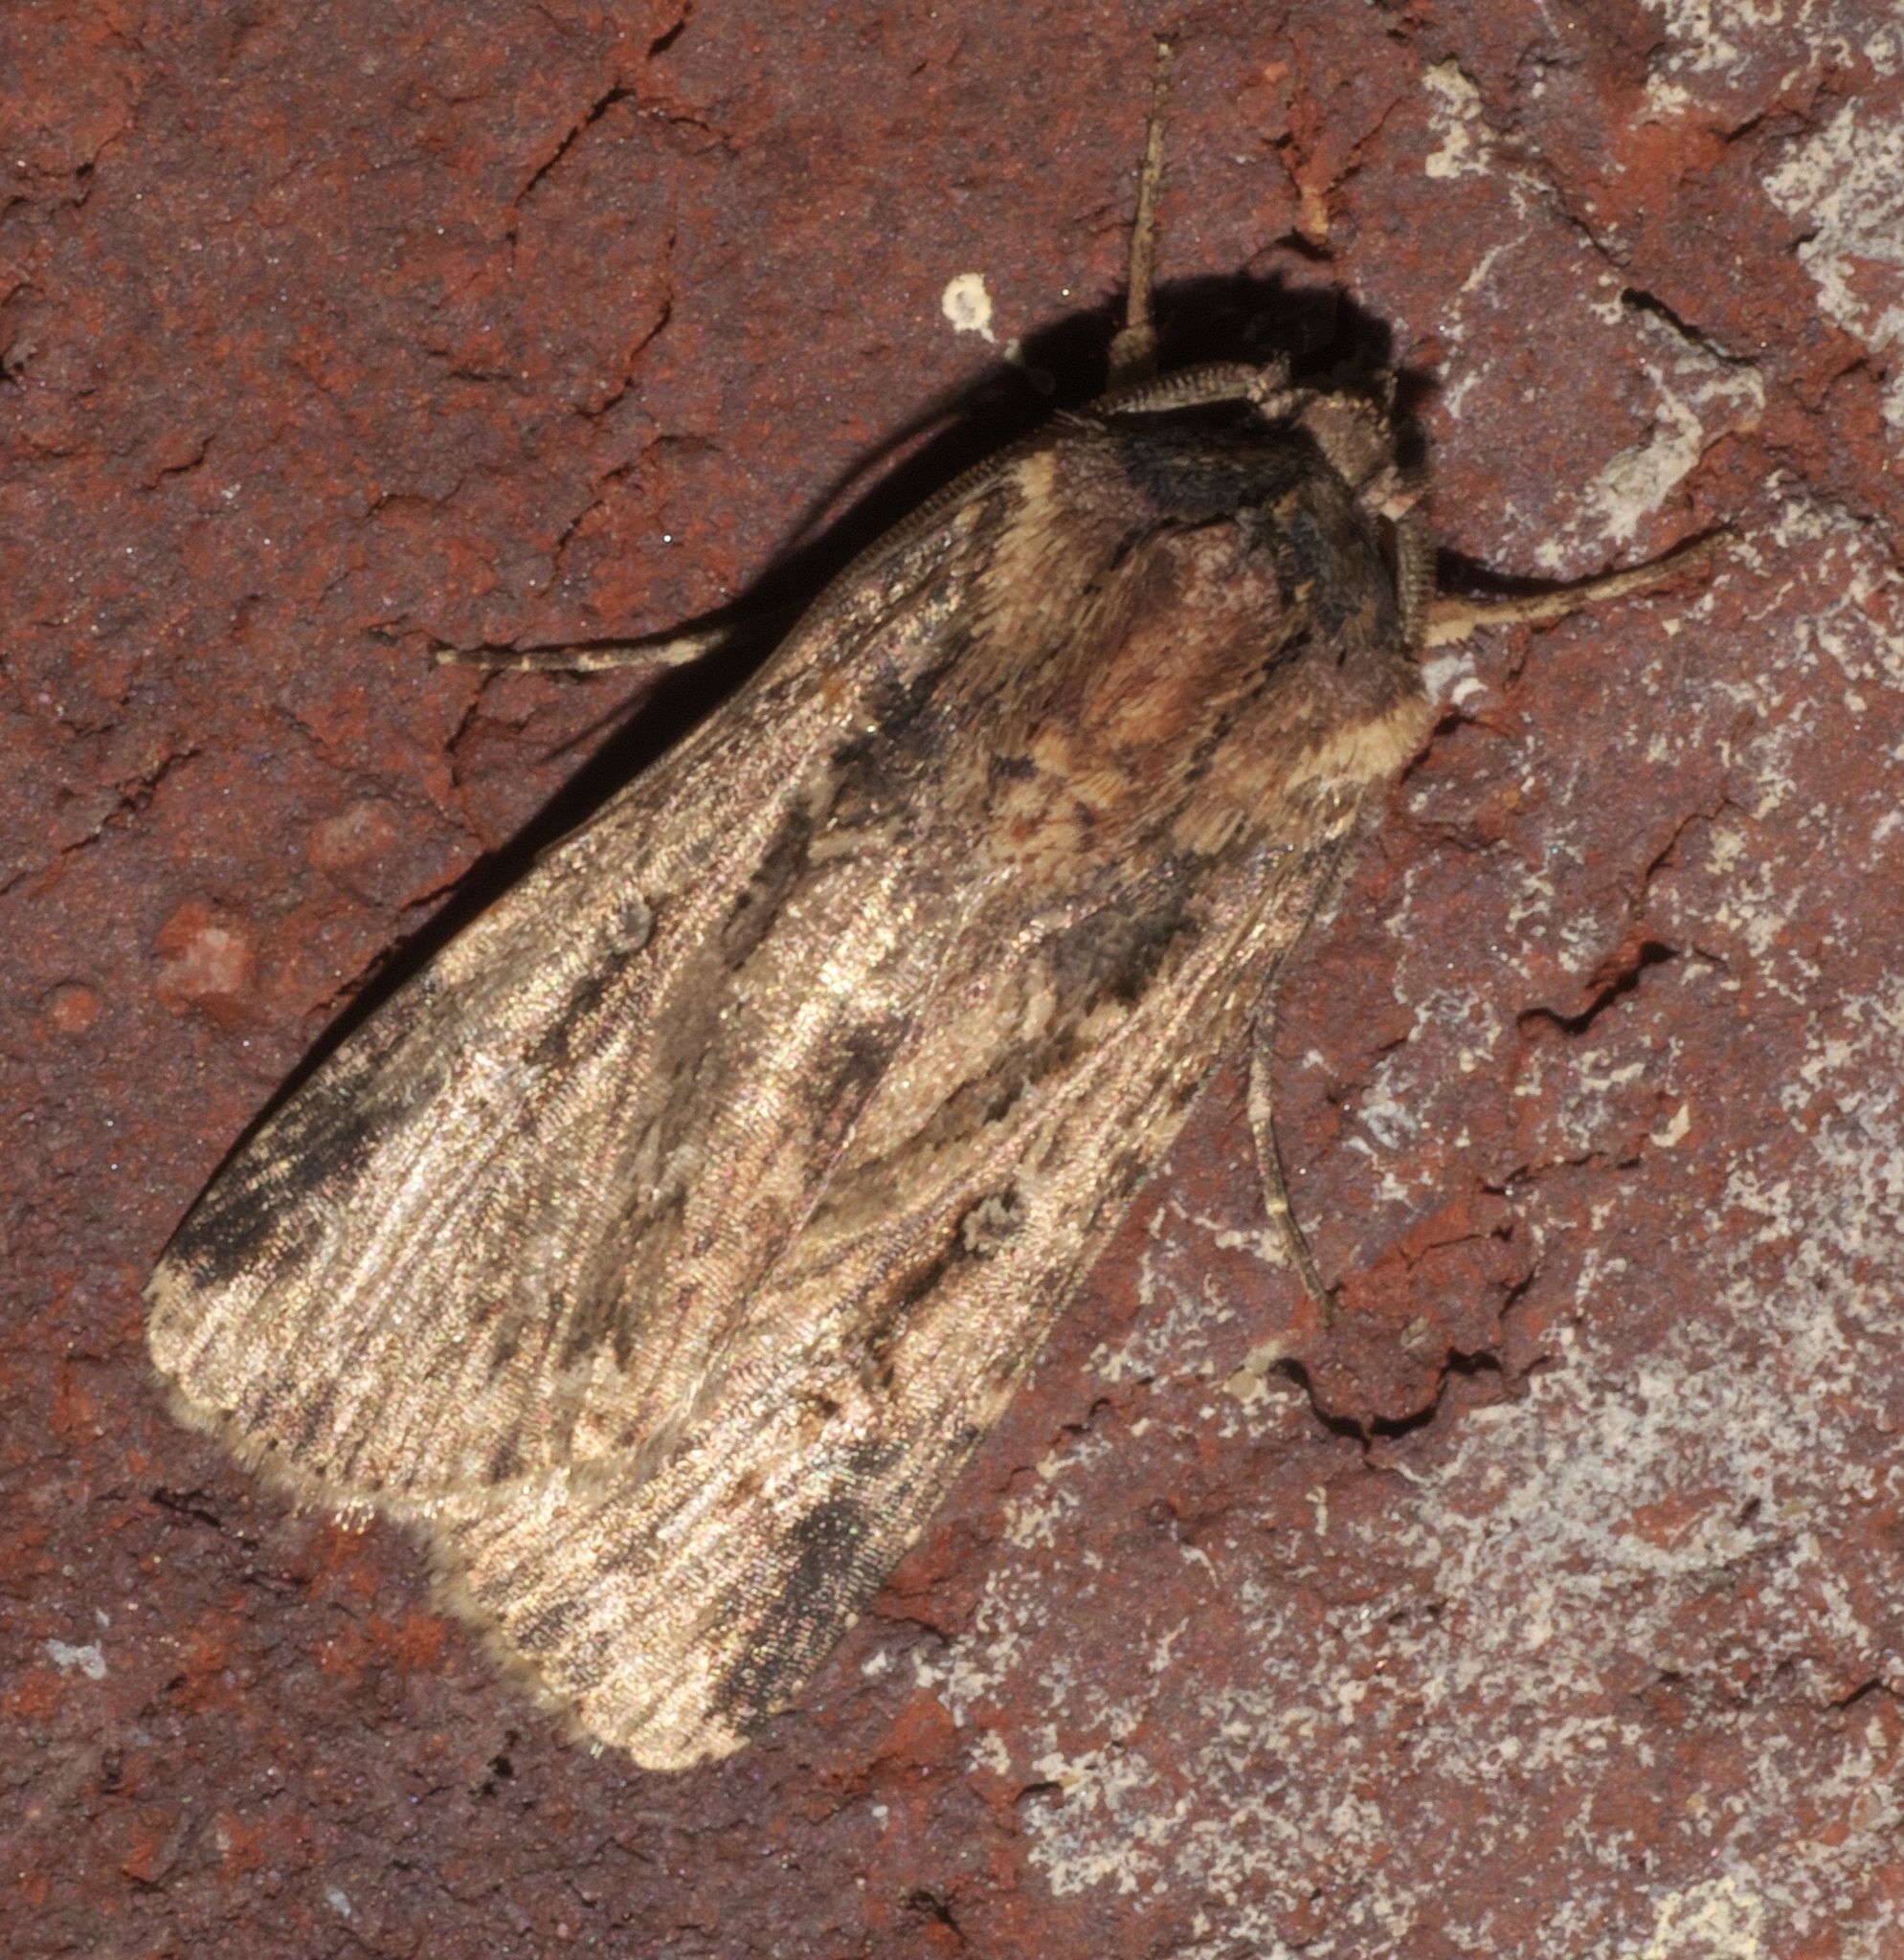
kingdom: Animalia
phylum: Arthropoda
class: Insecta
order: Lepidoptera
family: Noctuidae
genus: Feltia
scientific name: Feltia subterranea
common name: Granulate cutworm
